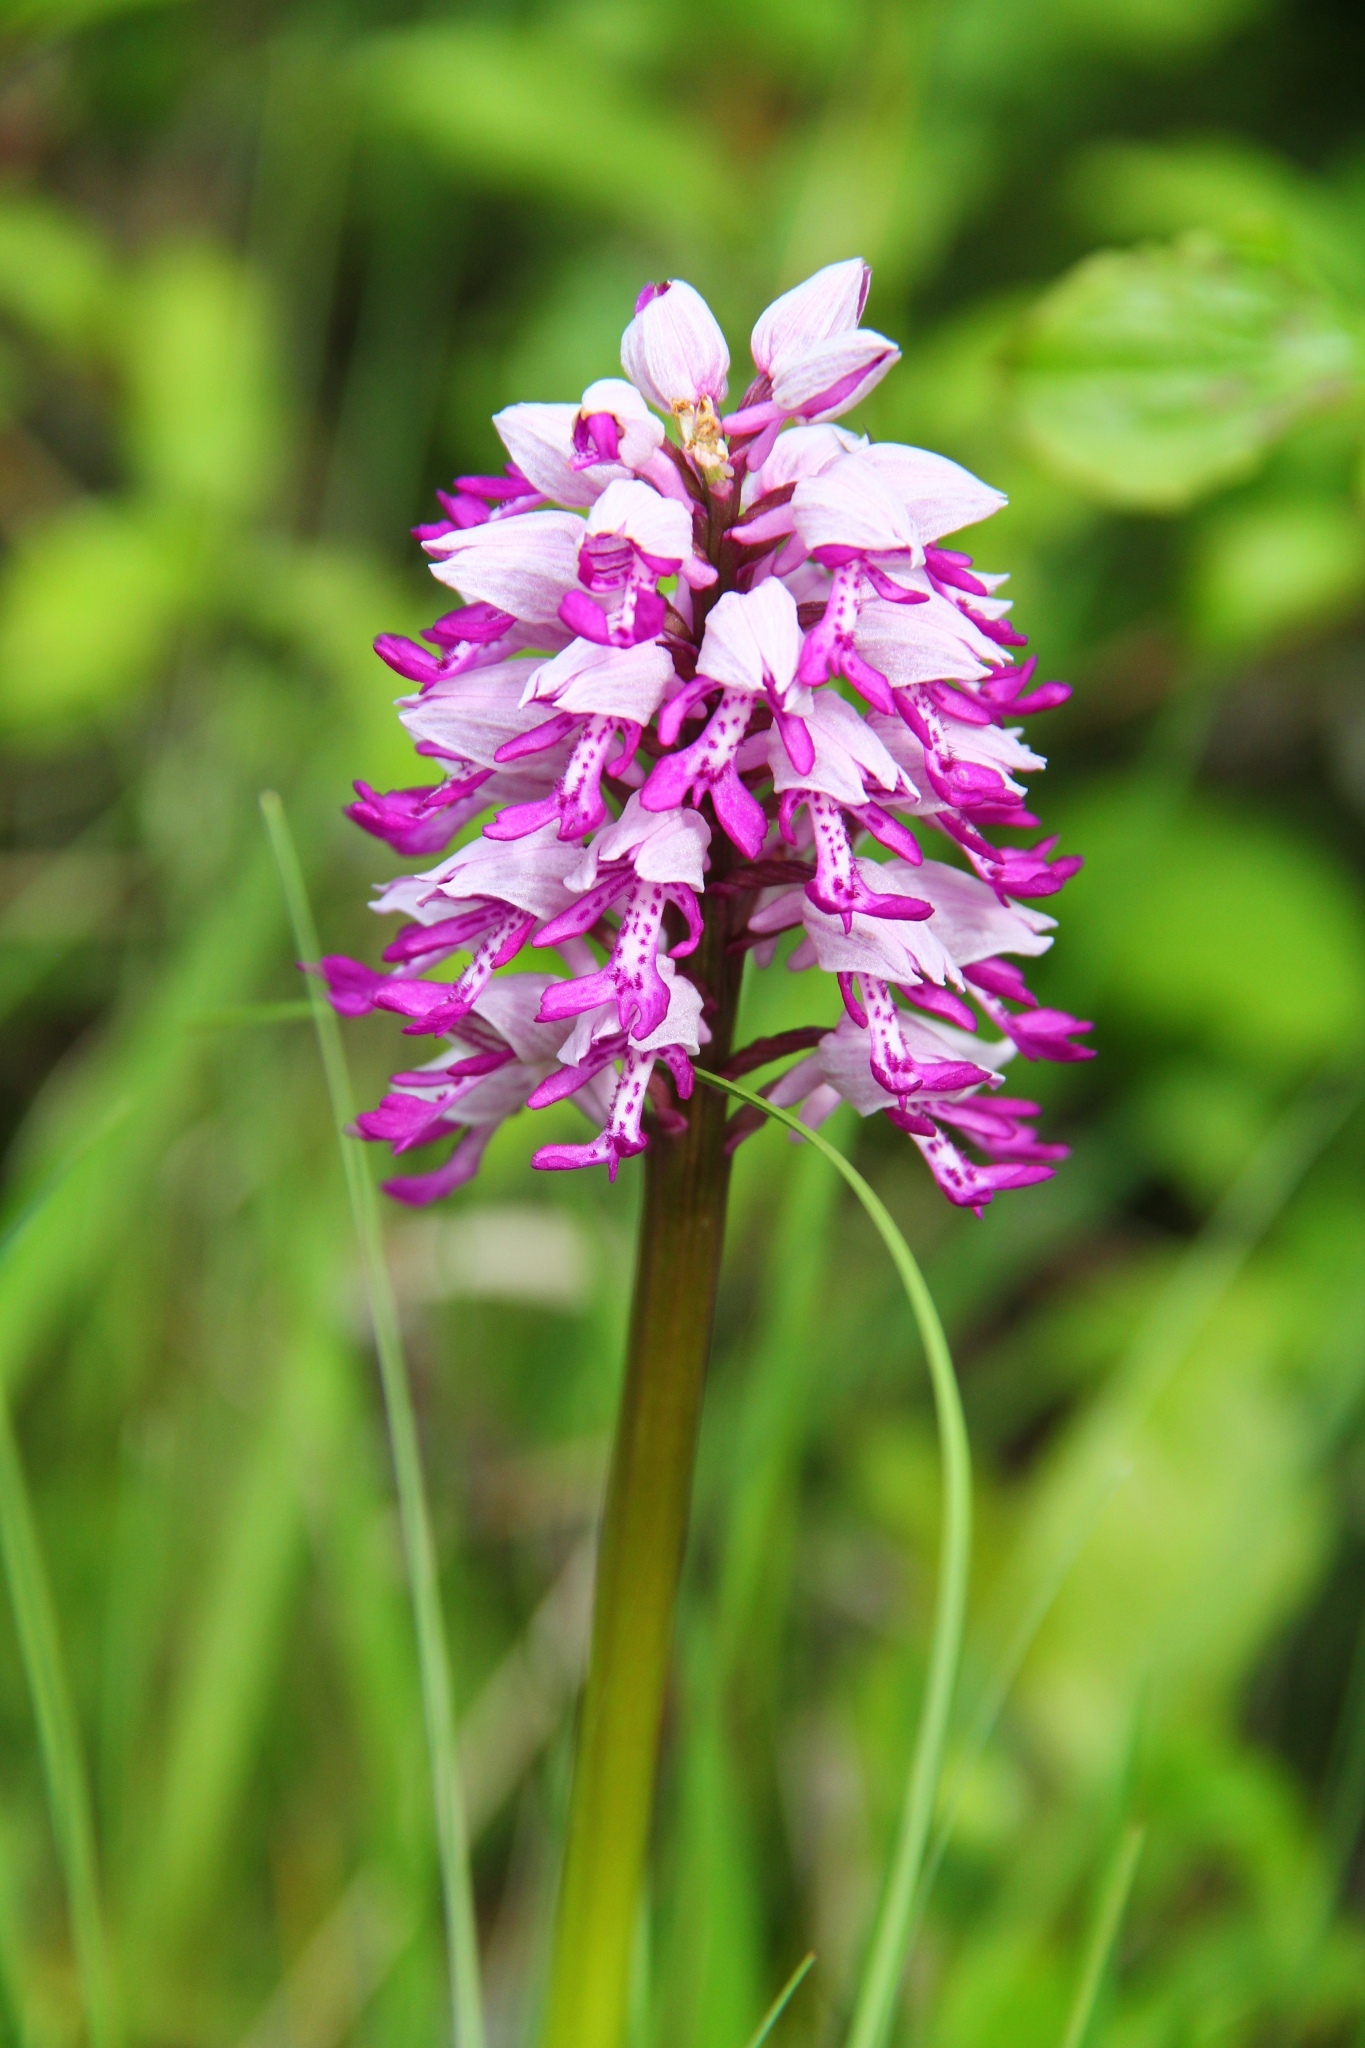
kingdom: Plantae
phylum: Tracheophyta
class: Liliopsida
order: Asparagales
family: Orchidaceae
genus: Orchis
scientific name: Orchis militaris
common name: Military orchid
